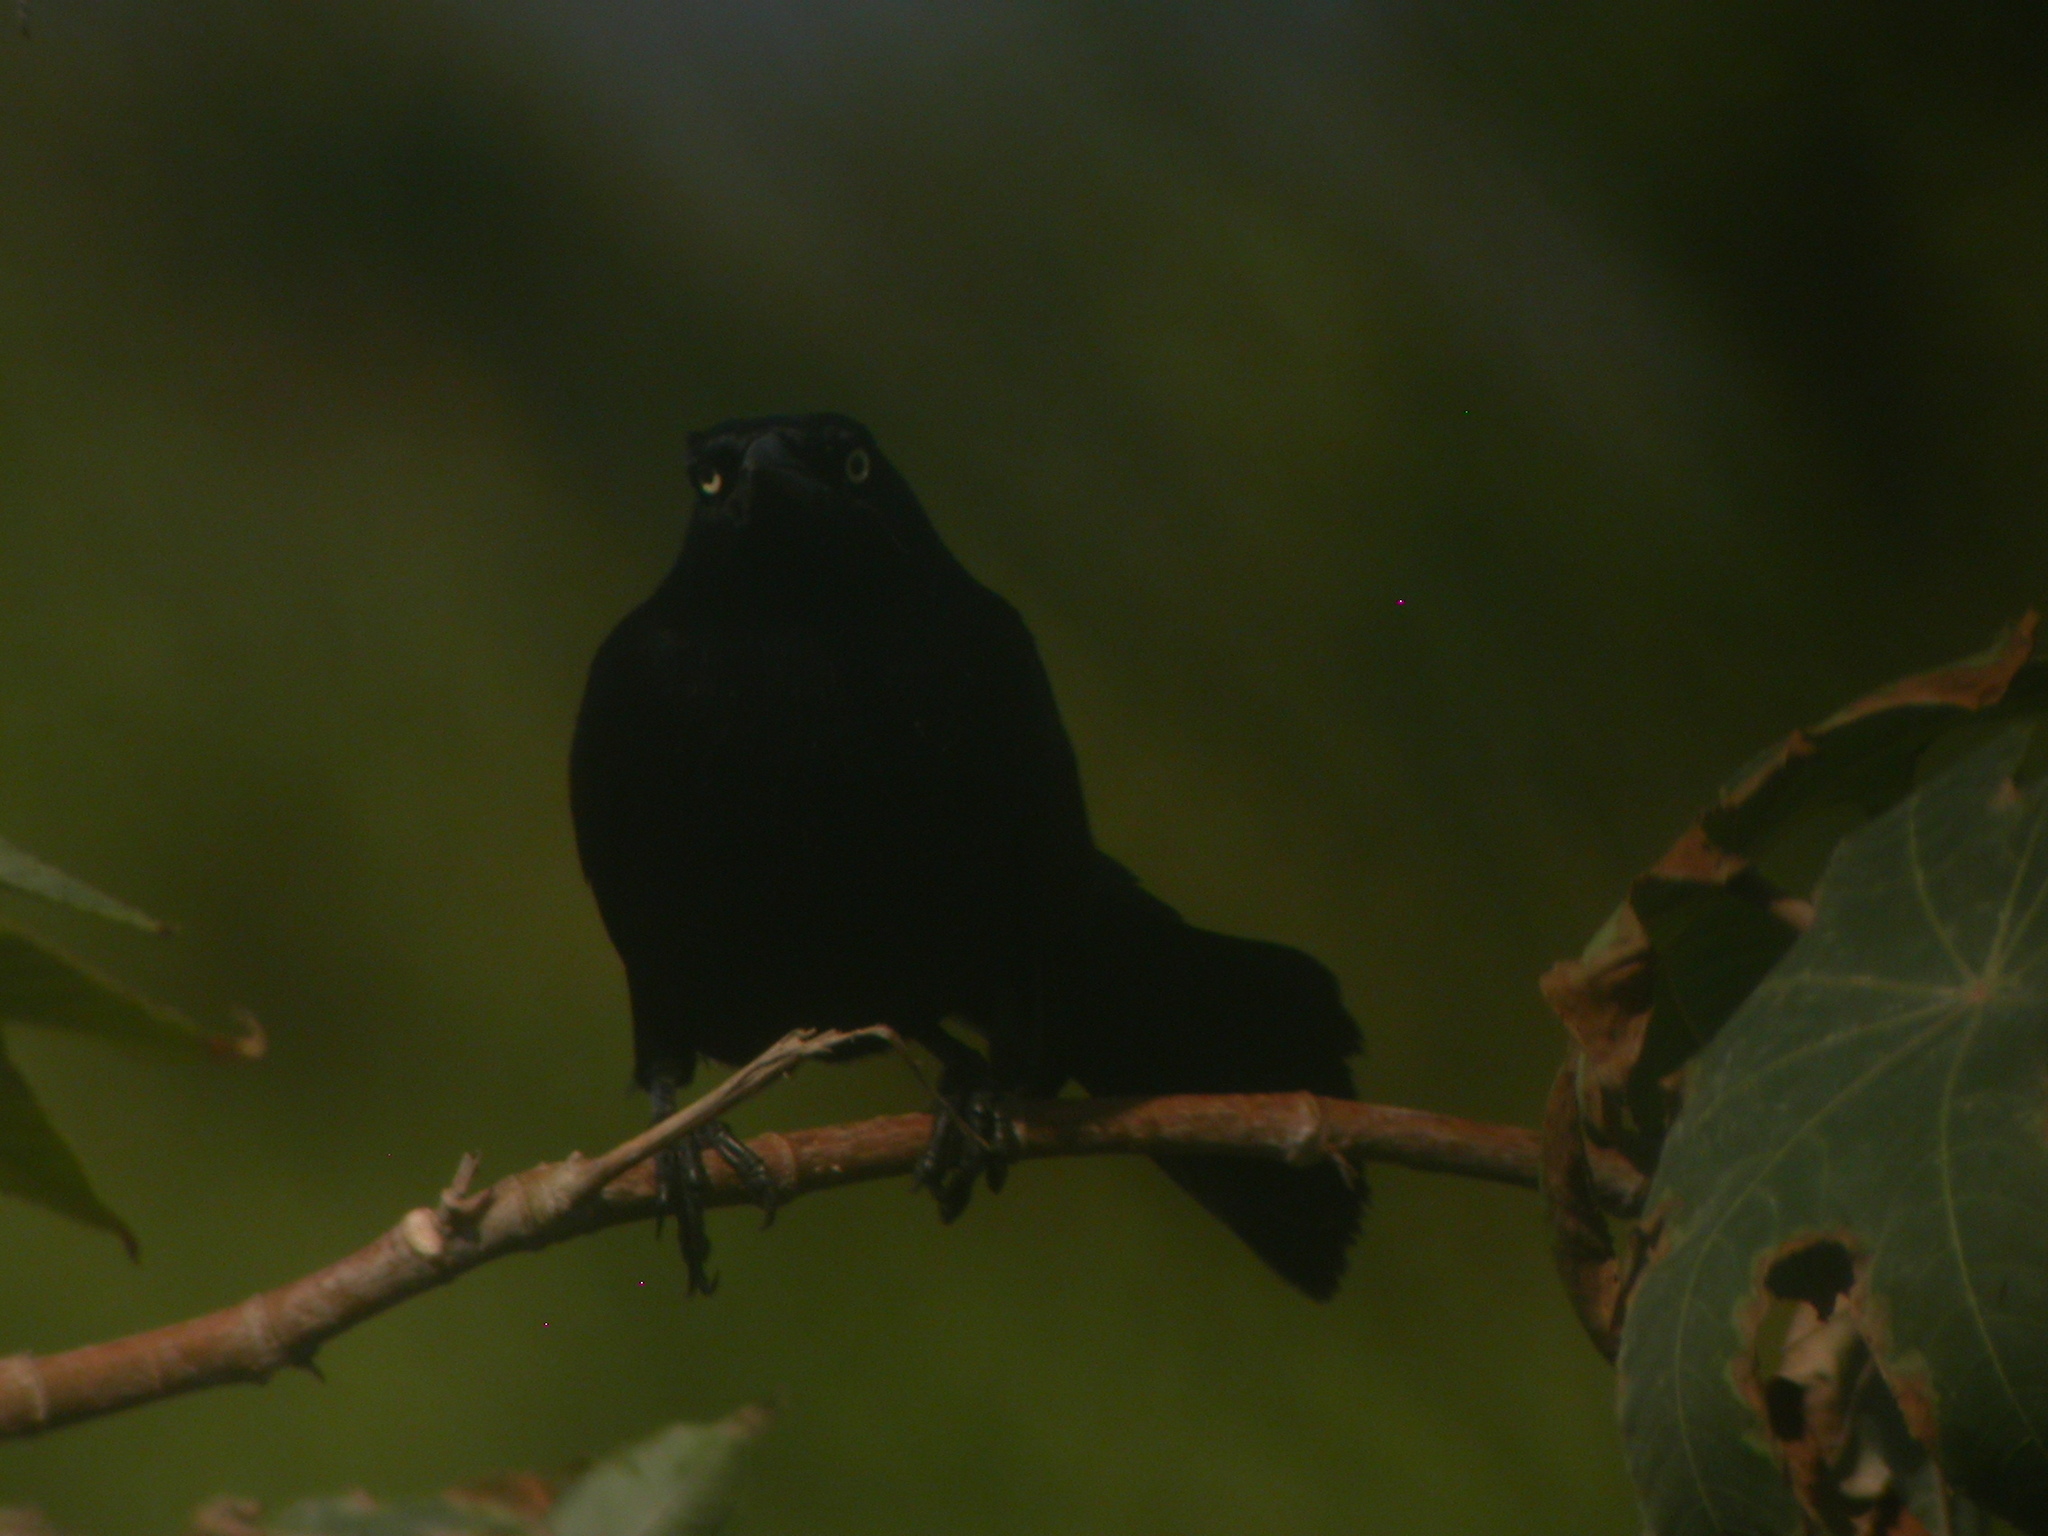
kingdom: Animalia
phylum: Chordata
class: Aves
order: Passeriformes
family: Icteridae
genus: Quiscalus
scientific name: Quiscalus lugubris
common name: Carib grackle
